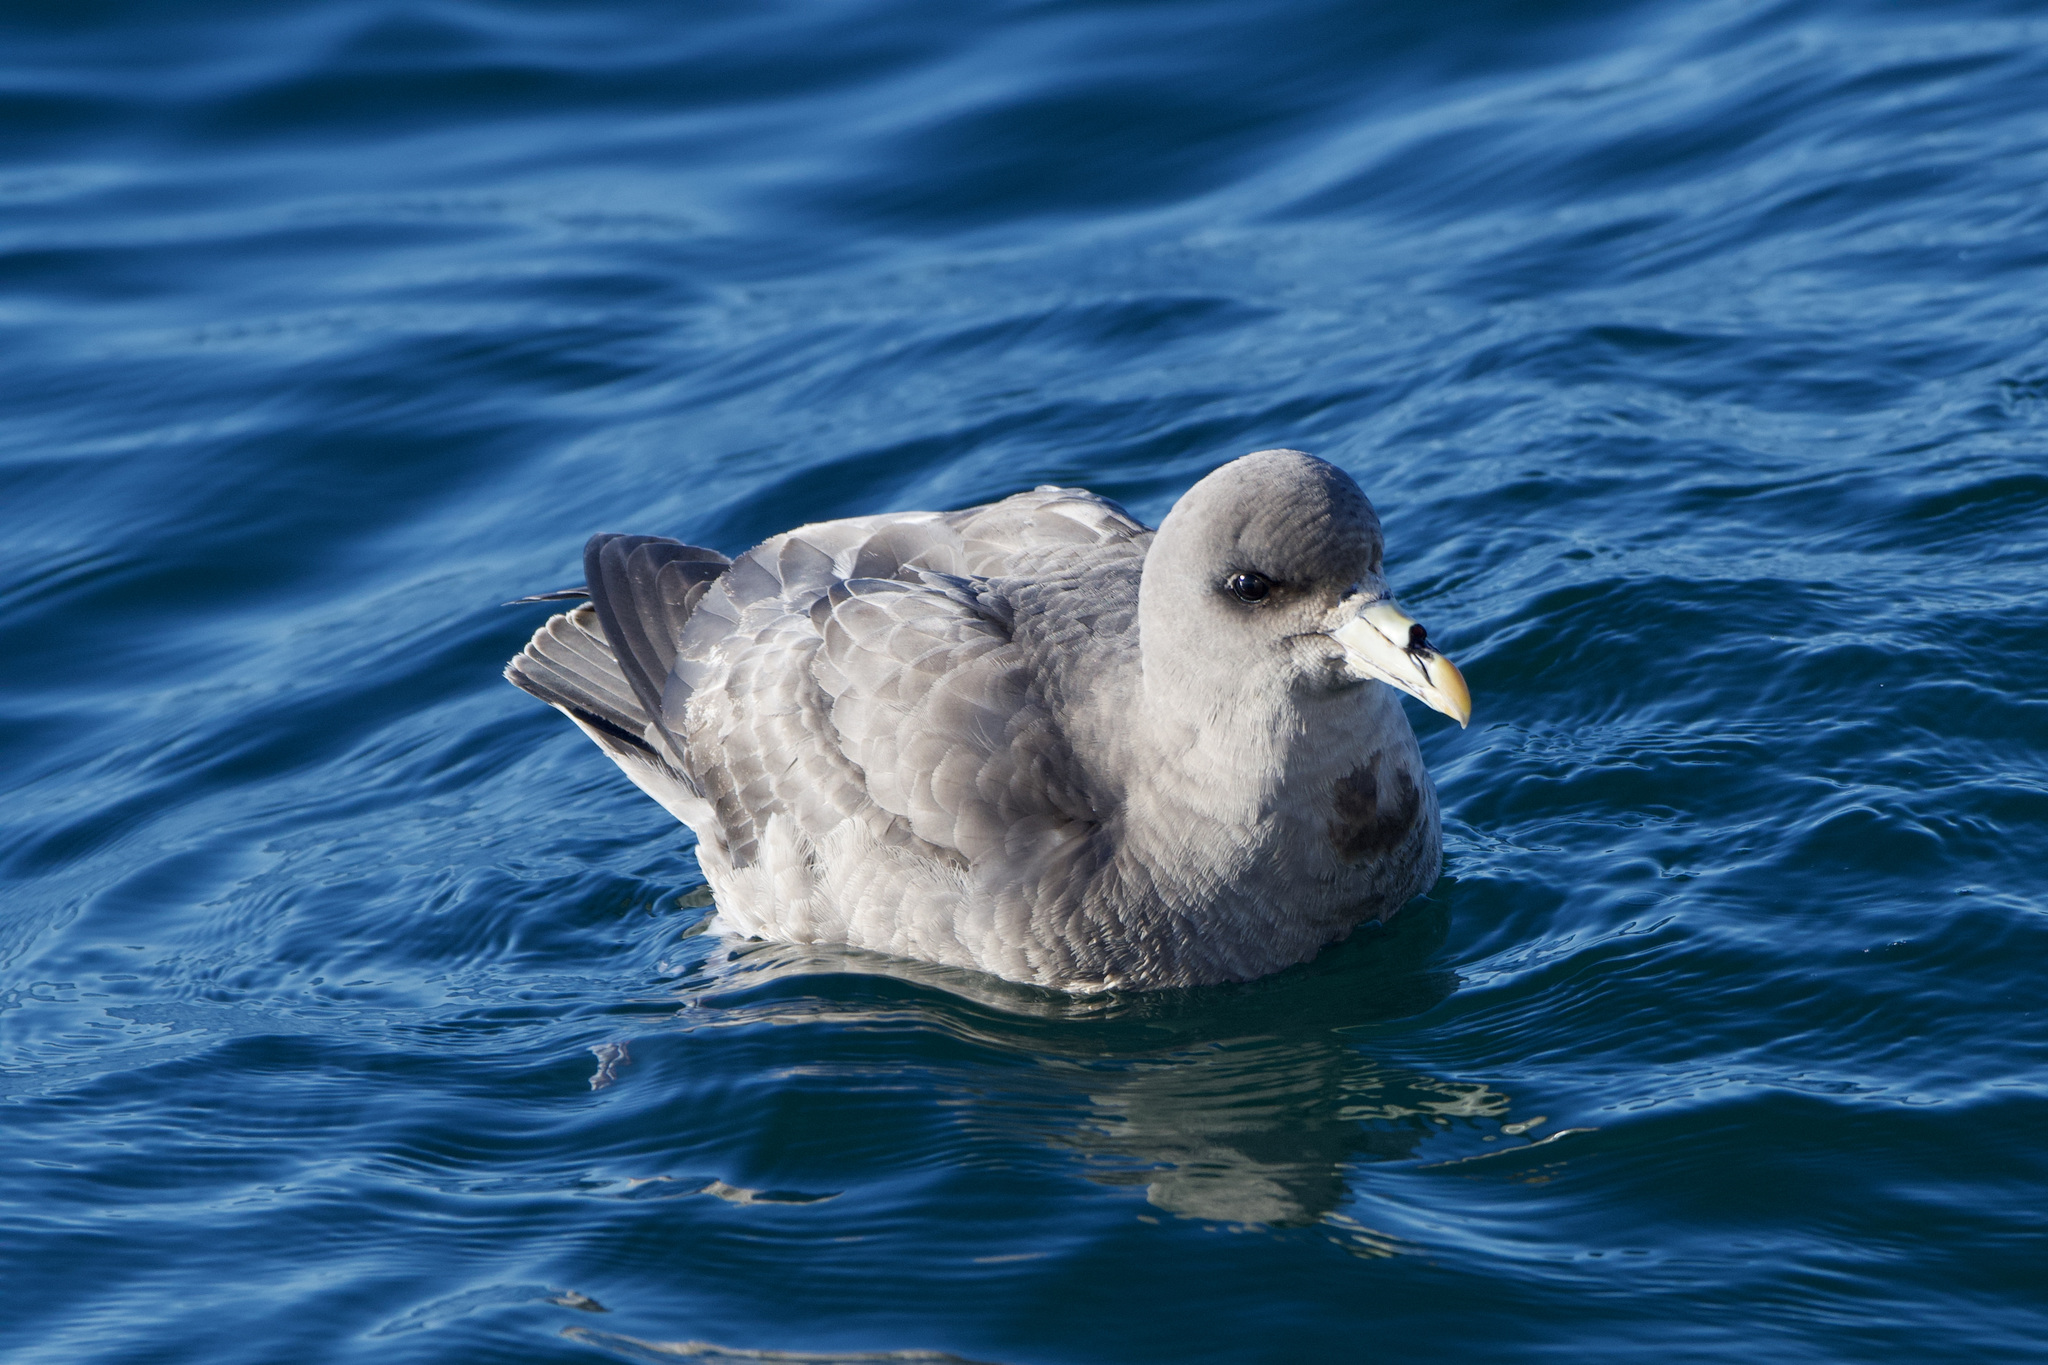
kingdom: Animalia
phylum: Chordata
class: Aves
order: Procellariiformes
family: Procellariidae
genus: Fulmarus
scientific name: Fulmarus glacialis
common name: Northern fulmar
